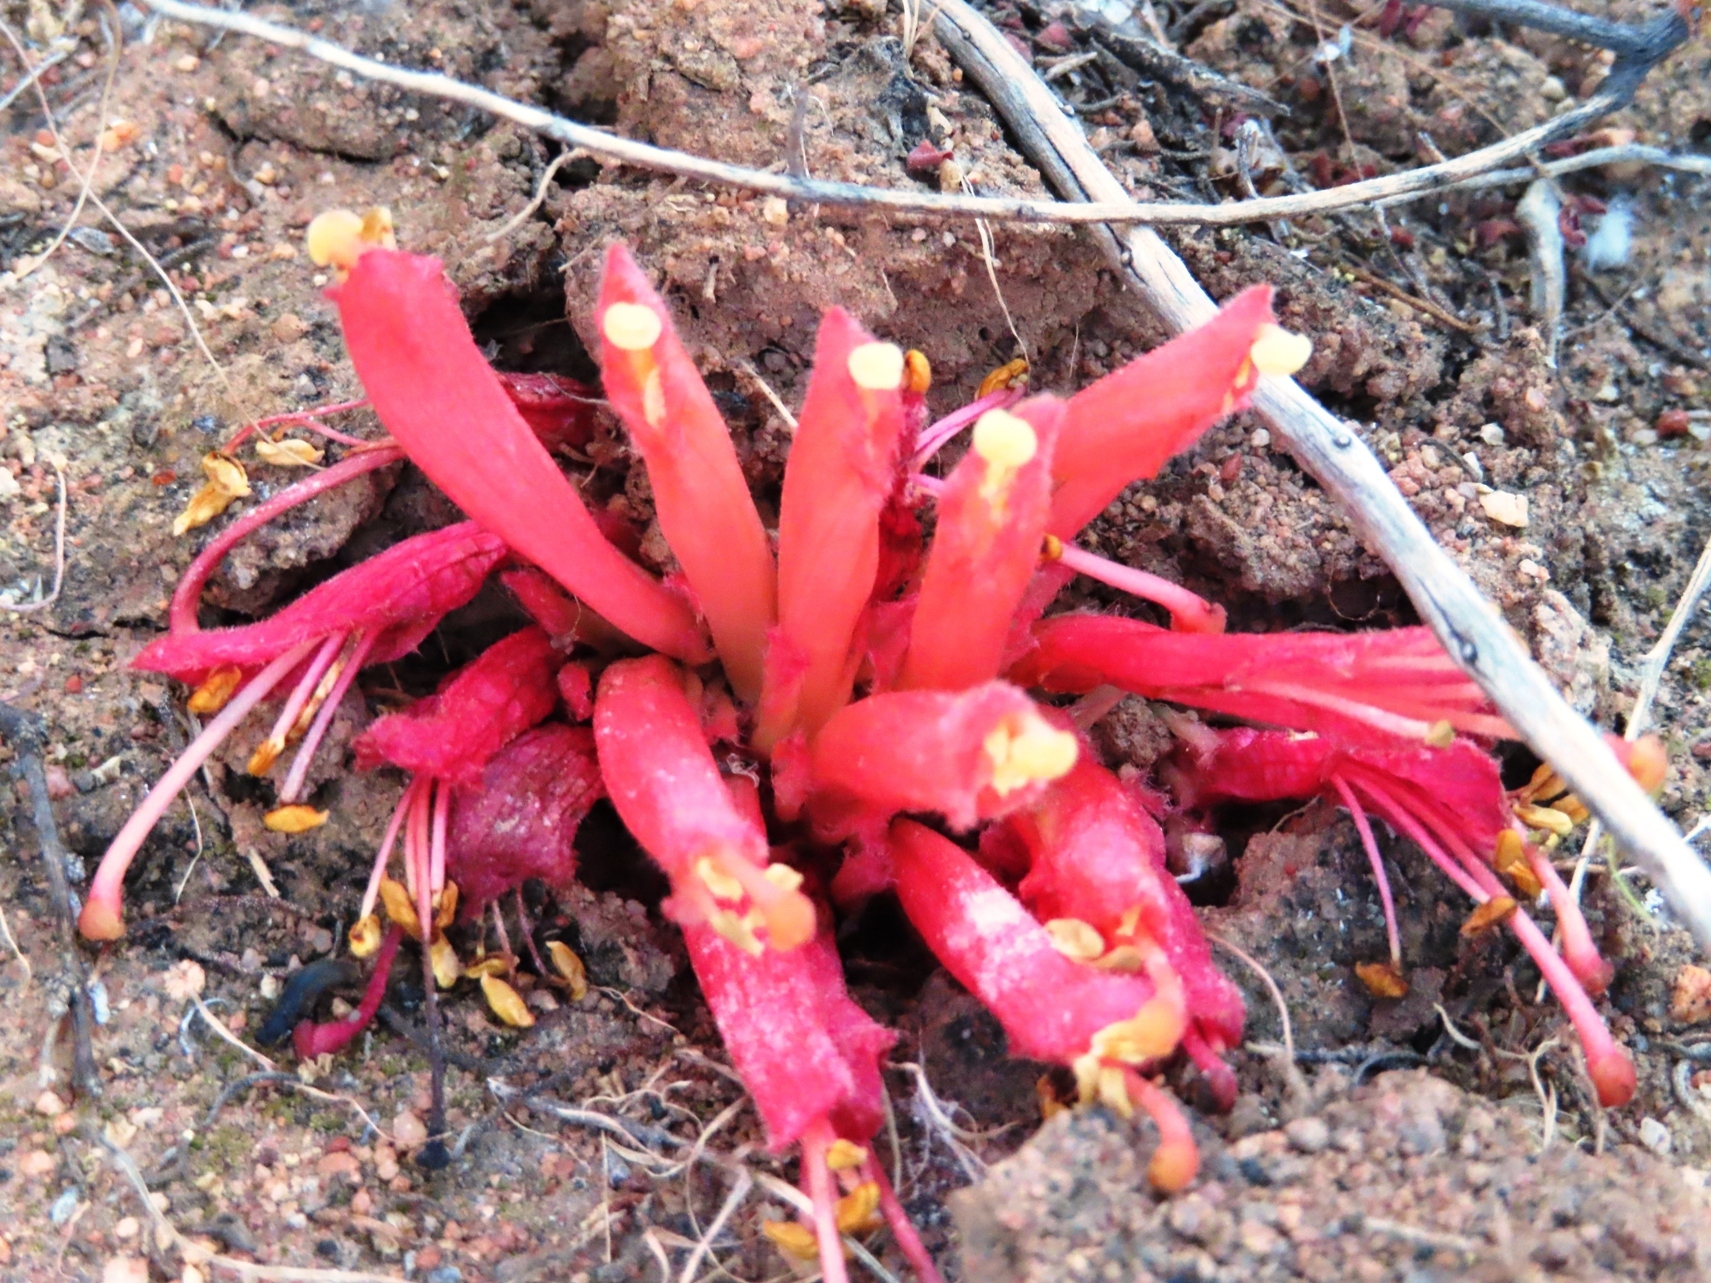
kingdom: Plantae
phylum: Tracheophyta
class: Magnoliopsida
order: Lamiales
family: Orobanchaceae
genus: Hyobanche
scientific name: Hyobanche glabrata
